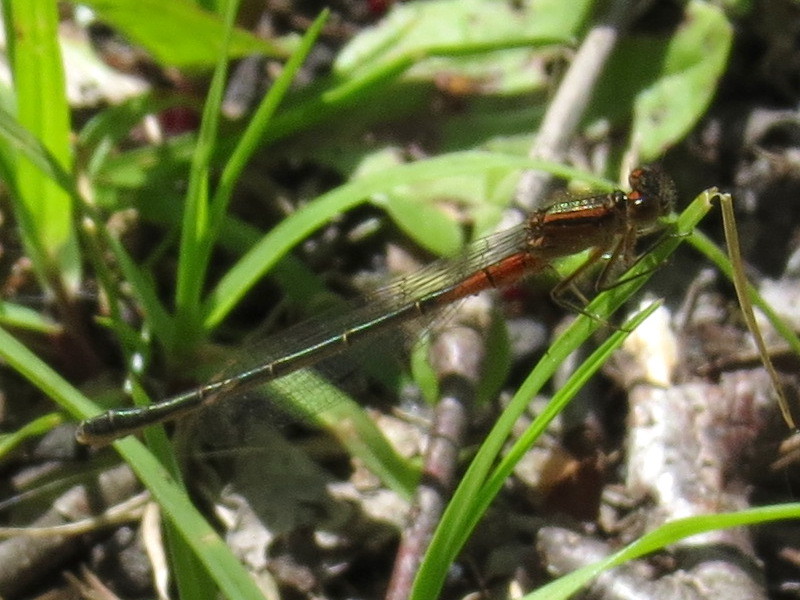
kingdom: Animalia
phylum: Arthropoda
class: Insecta
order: Odonata
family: Coenagrionidae
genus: Ischnura
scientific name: Ischnura verticalis
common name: Eastern forktail
